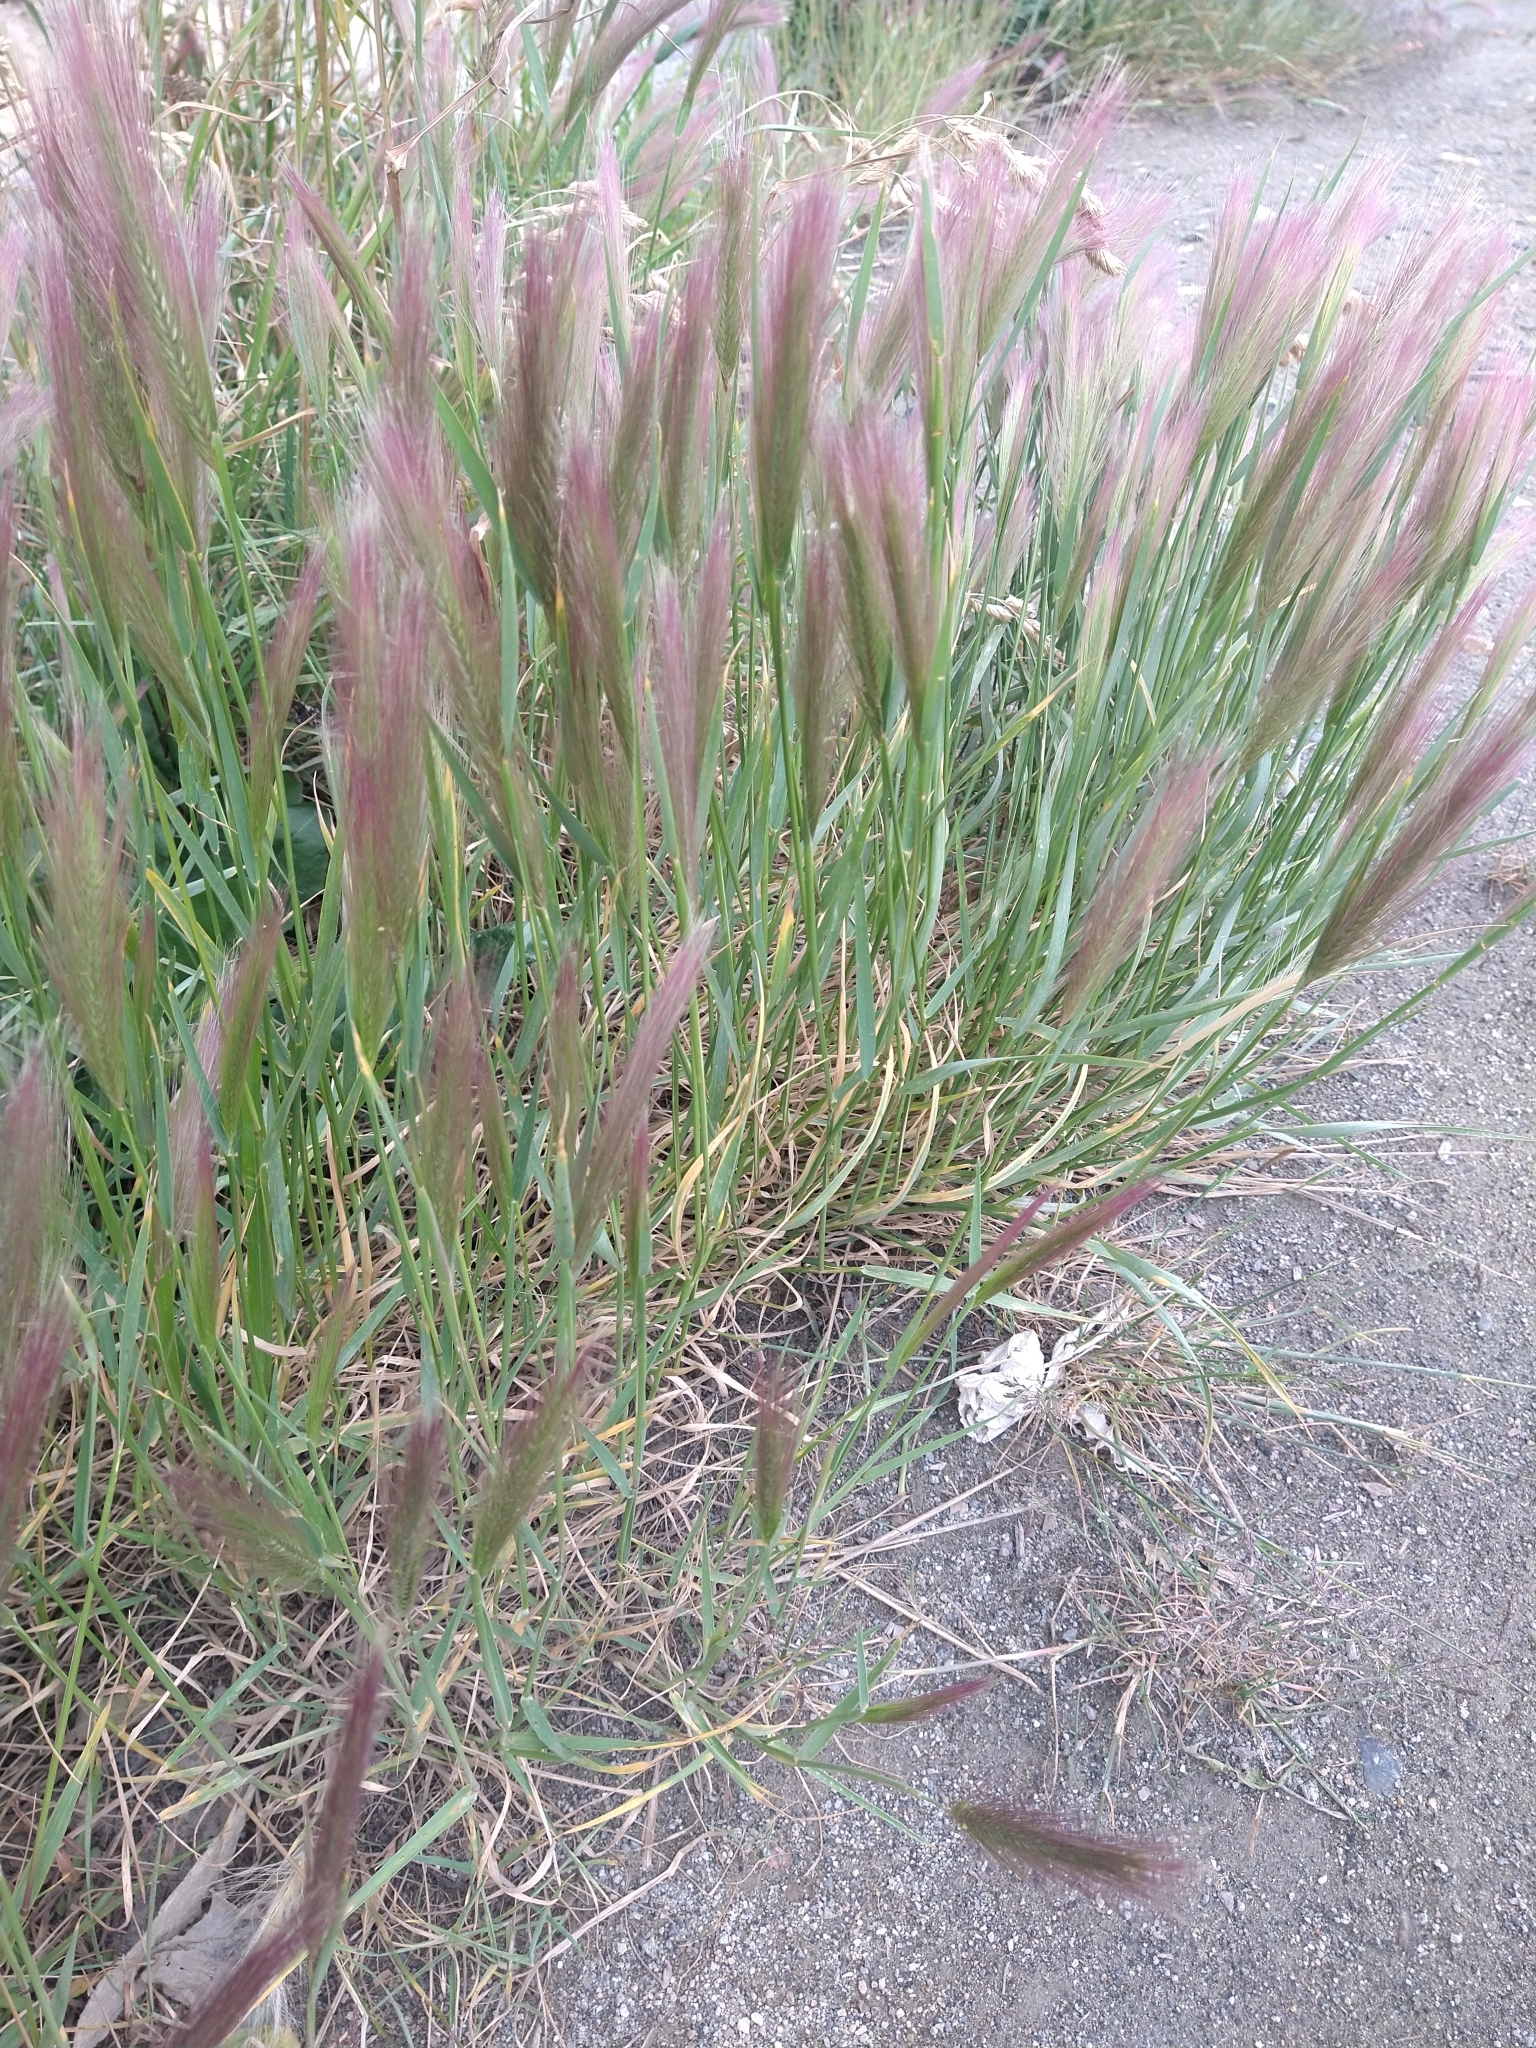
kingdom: Plantae
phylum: Tracheophyta
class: Liliopsida
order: Poales
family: Poaceae
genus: Hordeum
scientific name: Hordeum jubatum
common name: Foxtail barley
